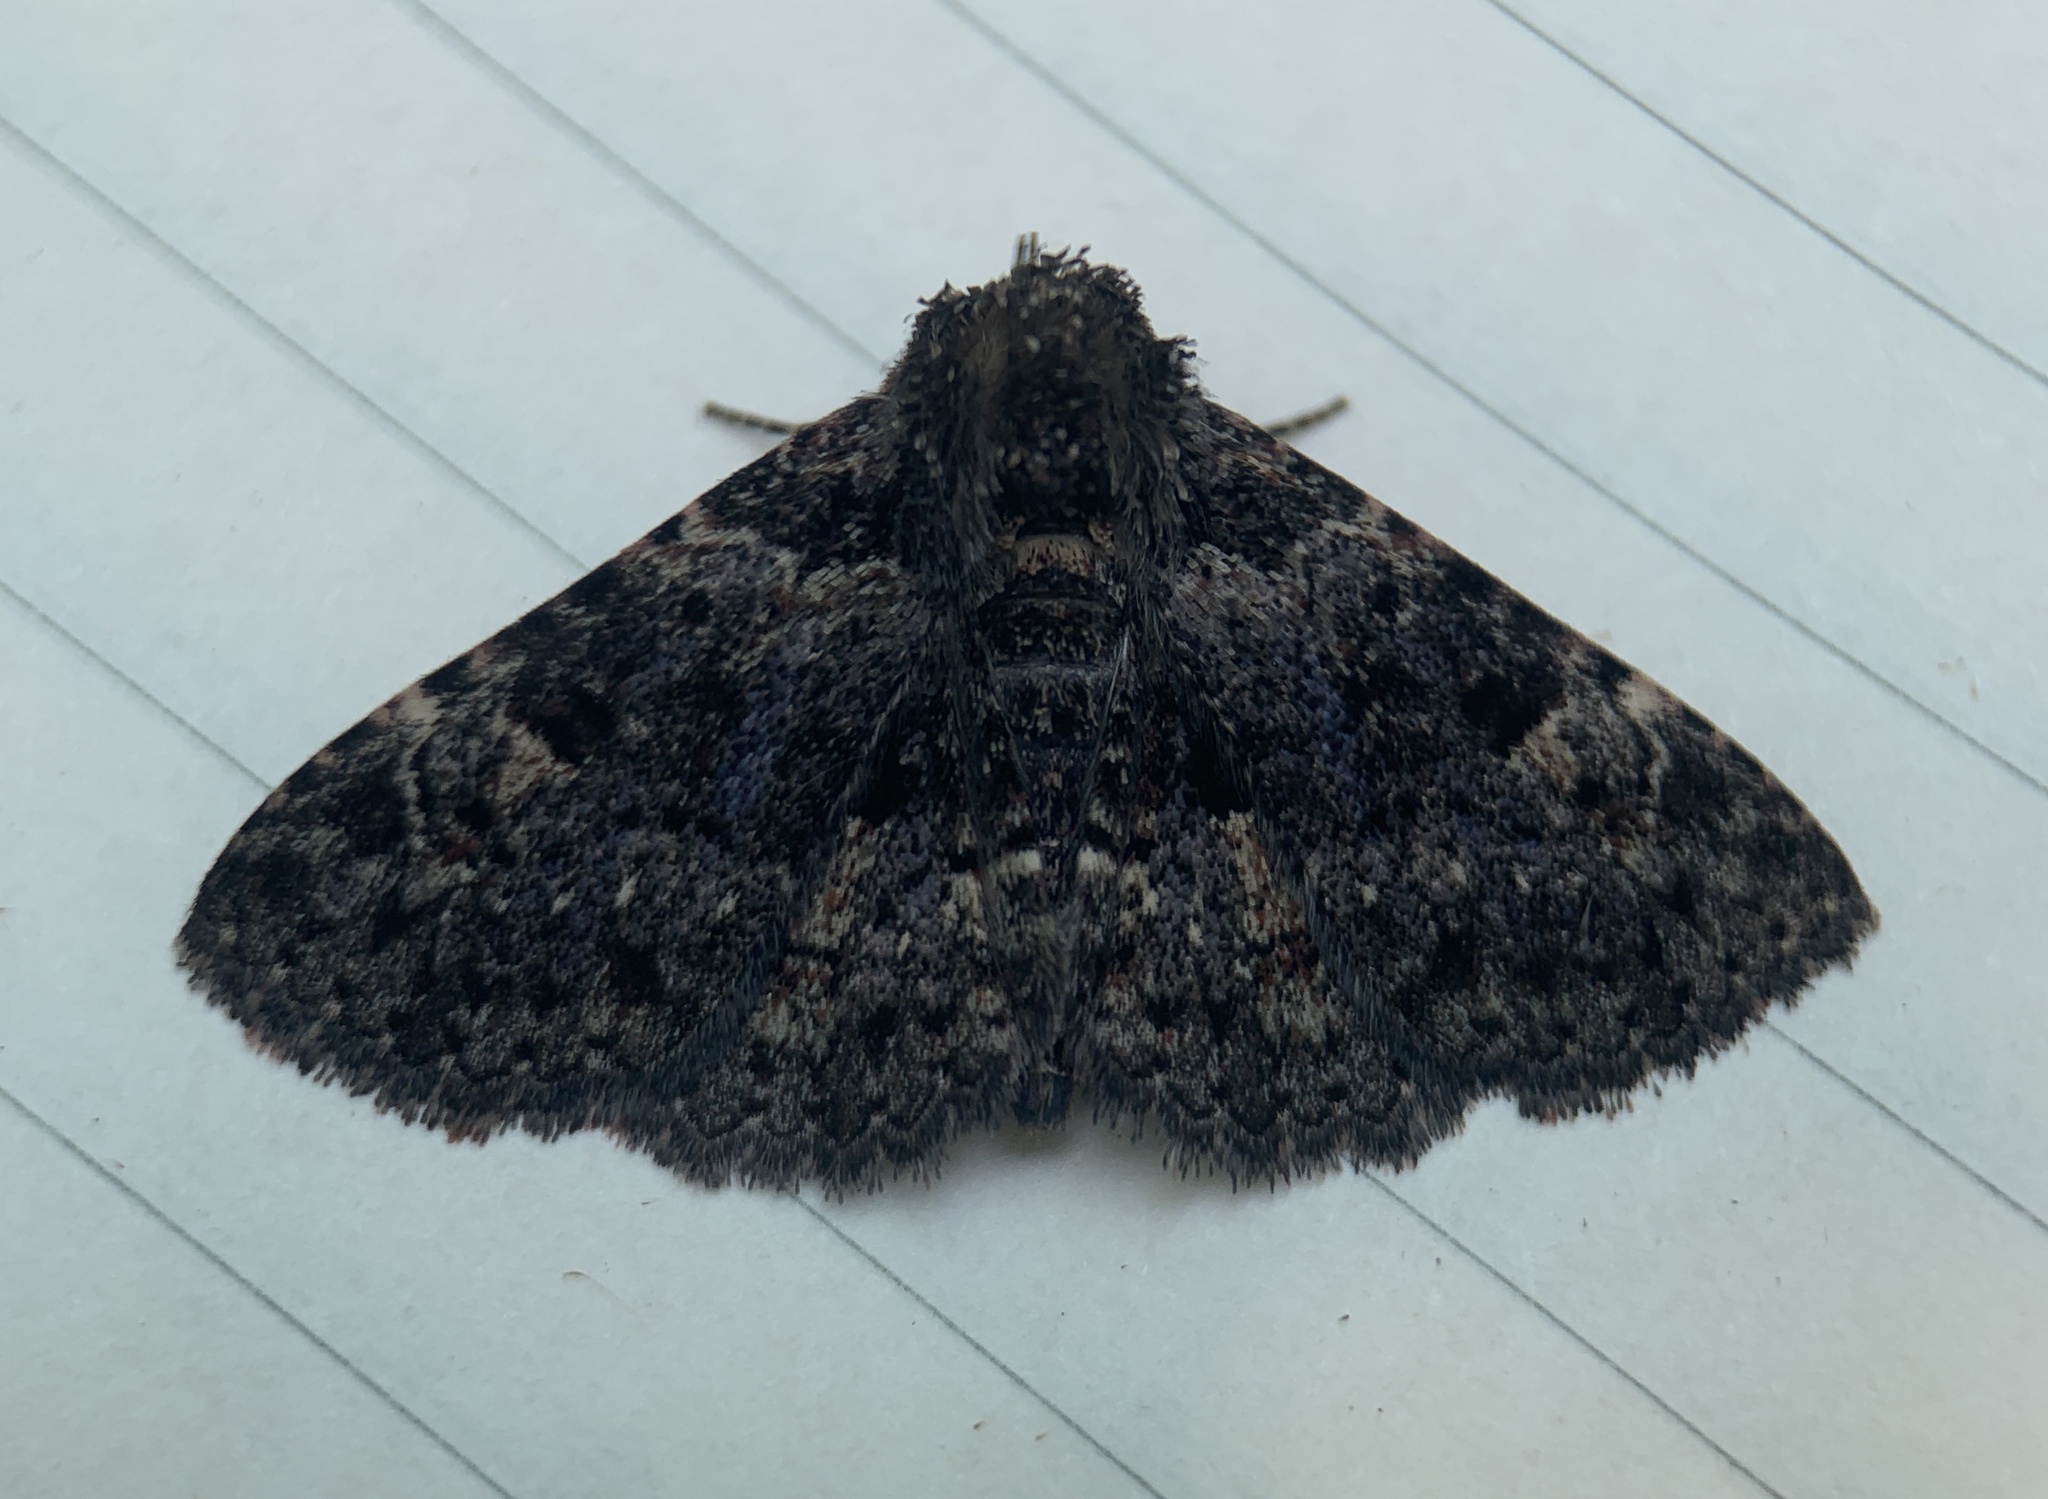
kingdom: Animalia
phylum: Arthropoda
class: Insecta
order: Lepidoptera
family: Erebidae
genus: Metalectra
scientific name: Metalectra discalis
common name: Common fungus moth
